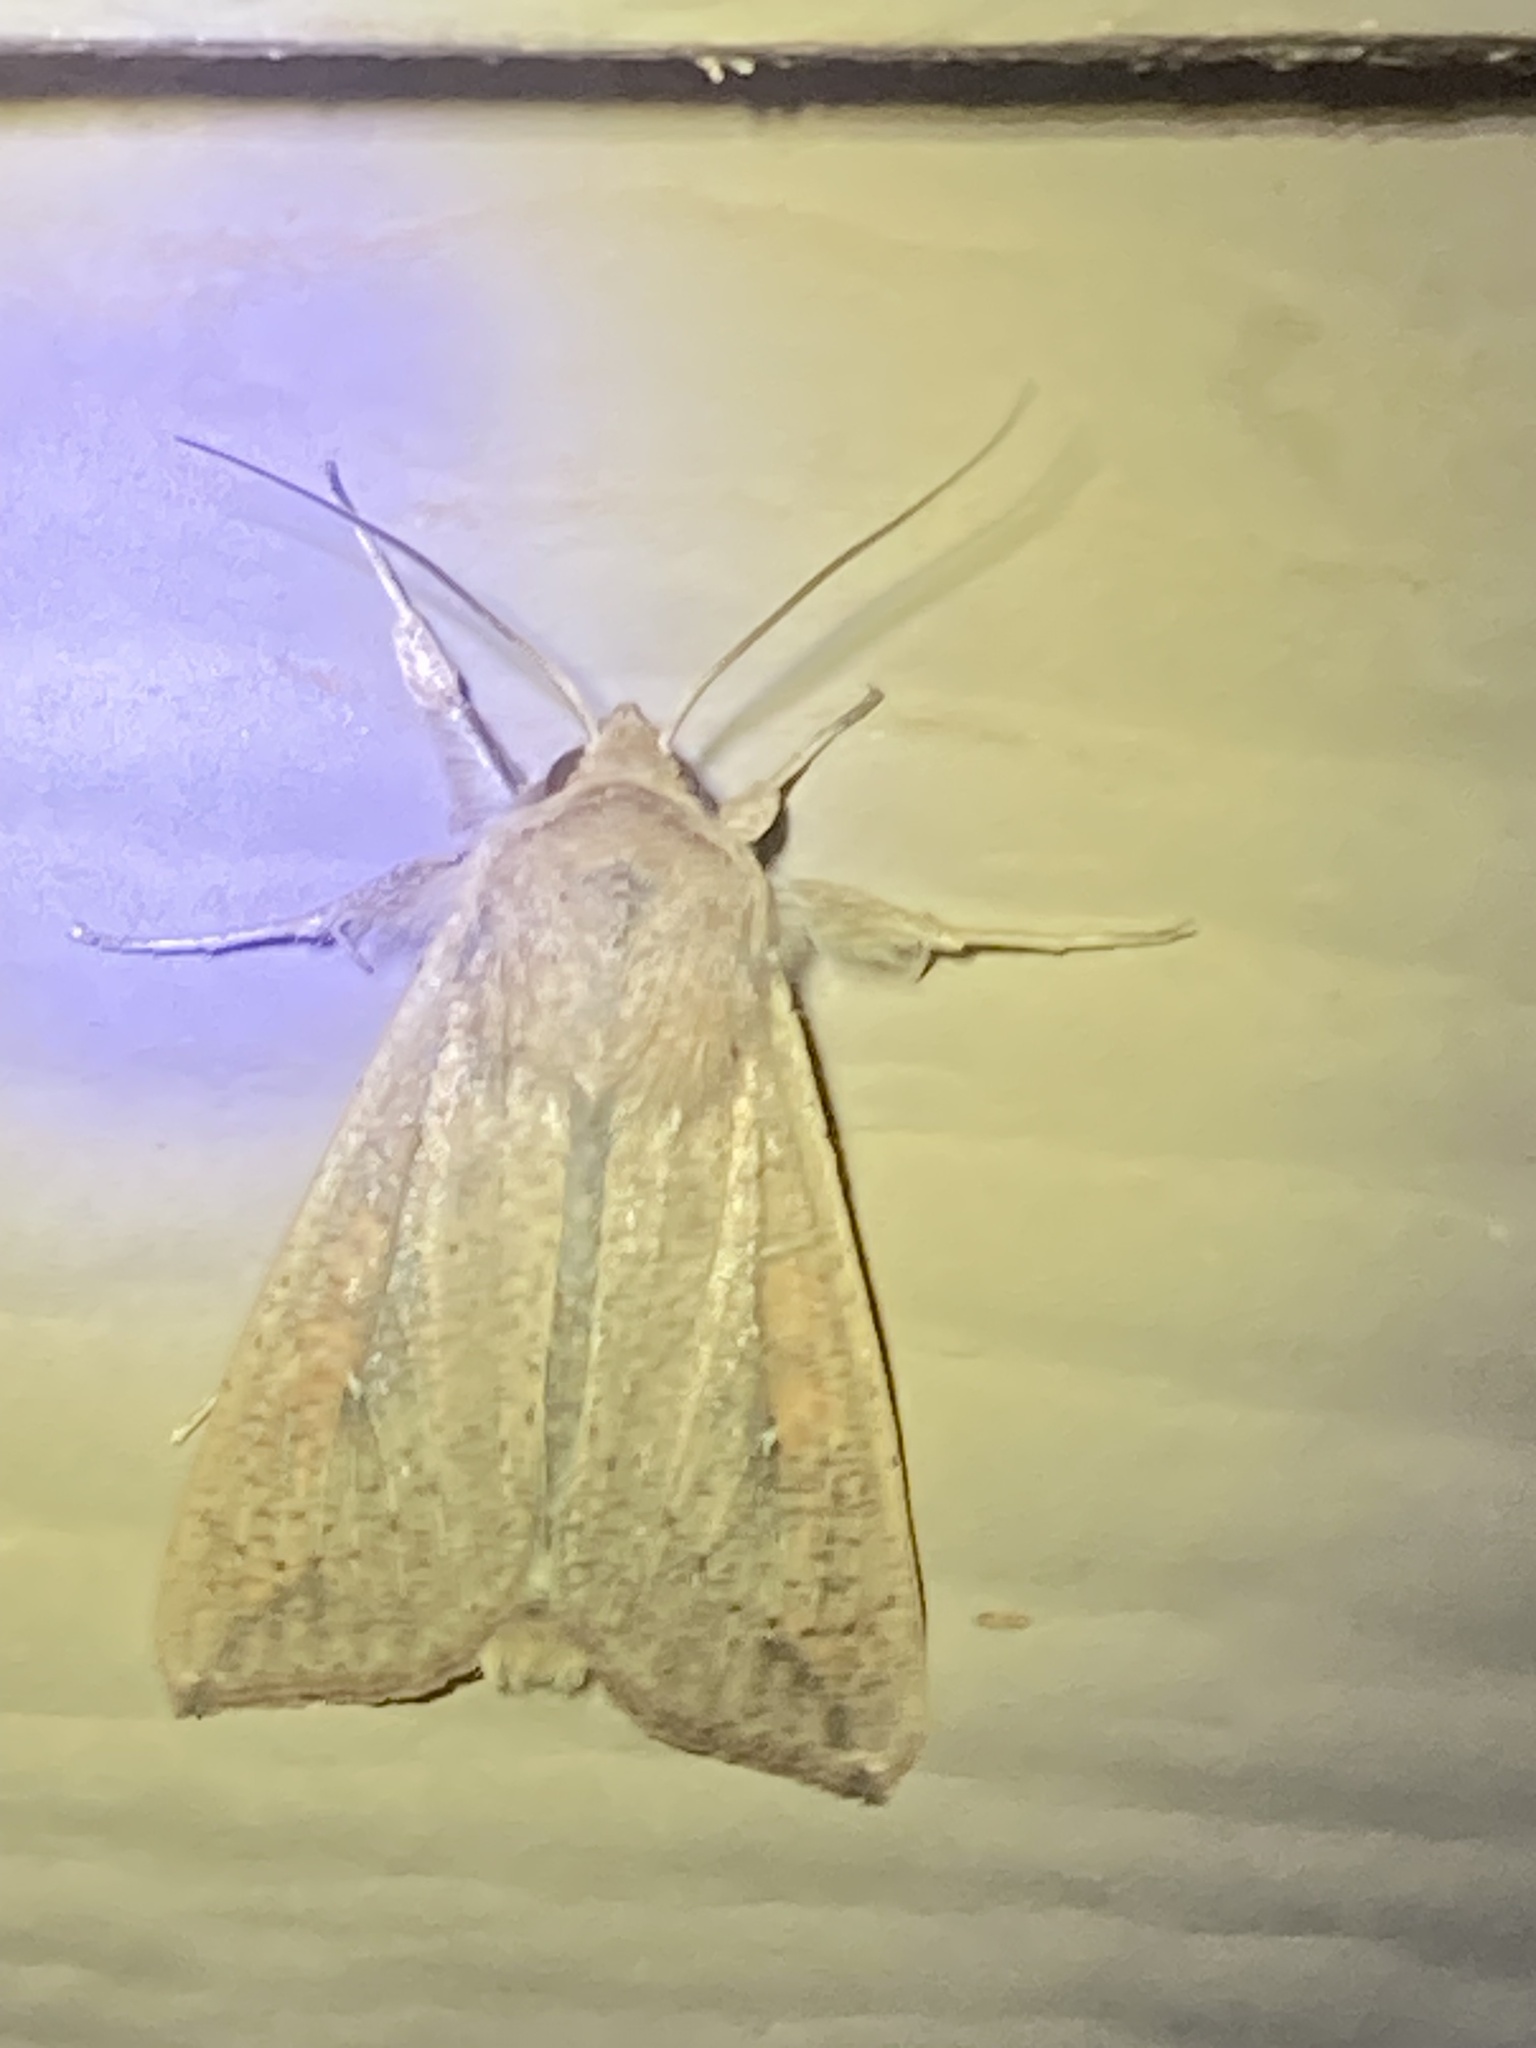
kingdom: Animalia
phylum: Arthropoda
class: Insecta
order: Lepidoptera
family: Noctuidae
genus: Mythimna
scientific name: Mythimna unipuncta
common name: White-speck
